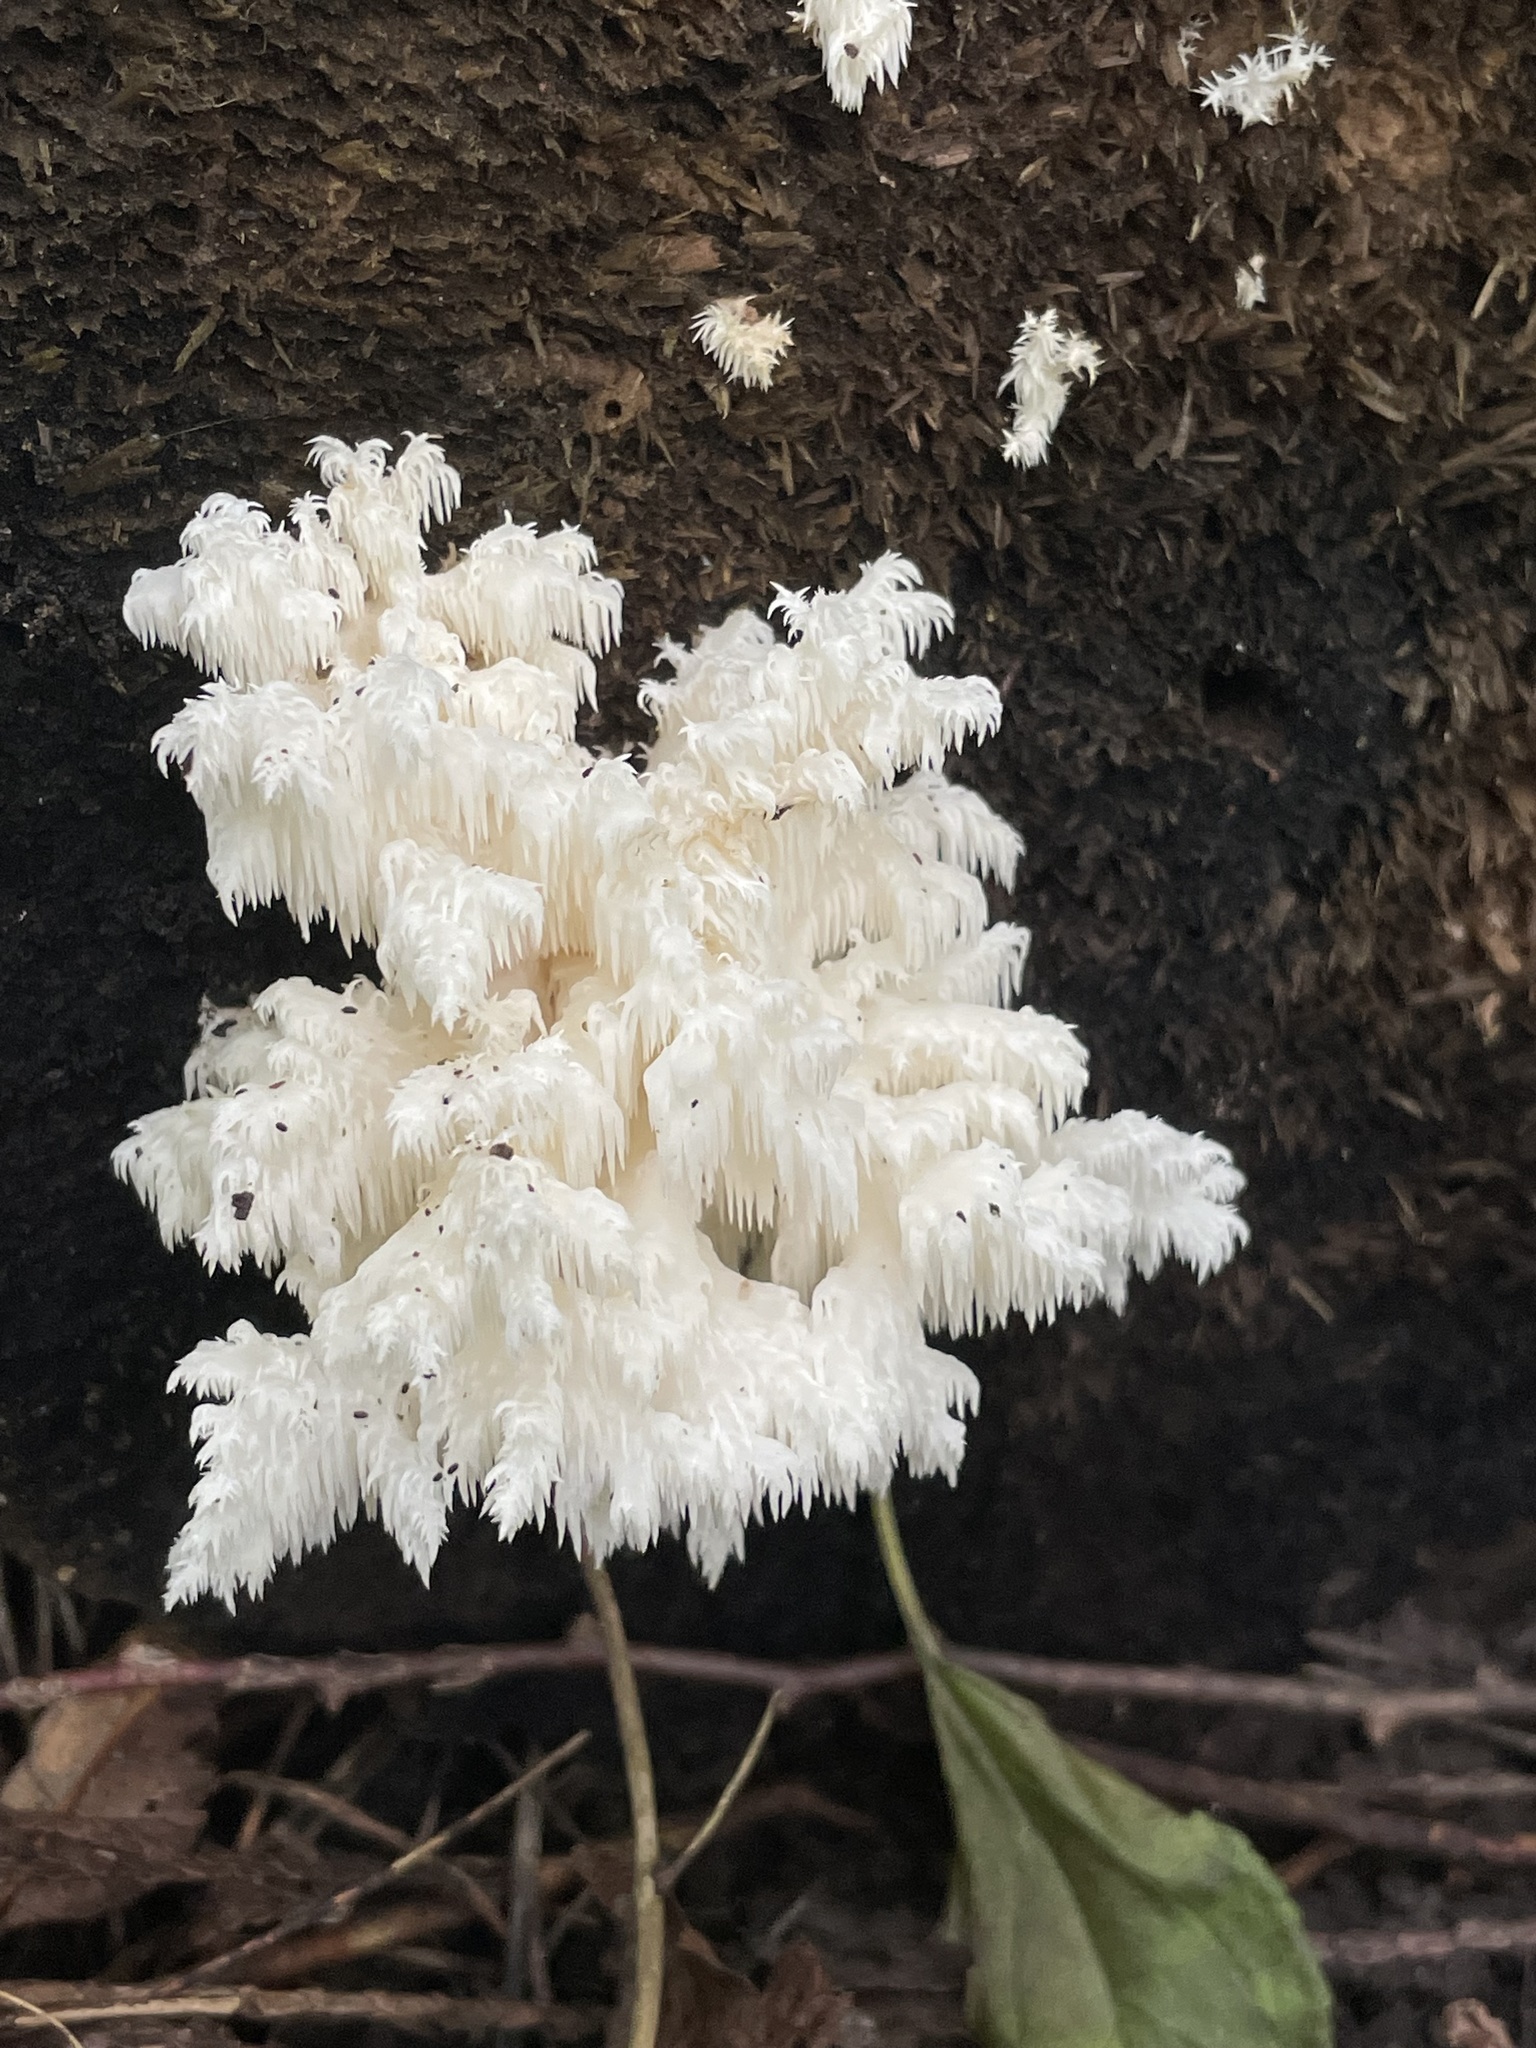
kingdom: Fungi
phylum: Basidiomycota
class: Agaricomycetes
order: Russulales
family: Hericiaceae
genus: Hericium
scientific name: Hericium coralloides
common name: Coral tooth
